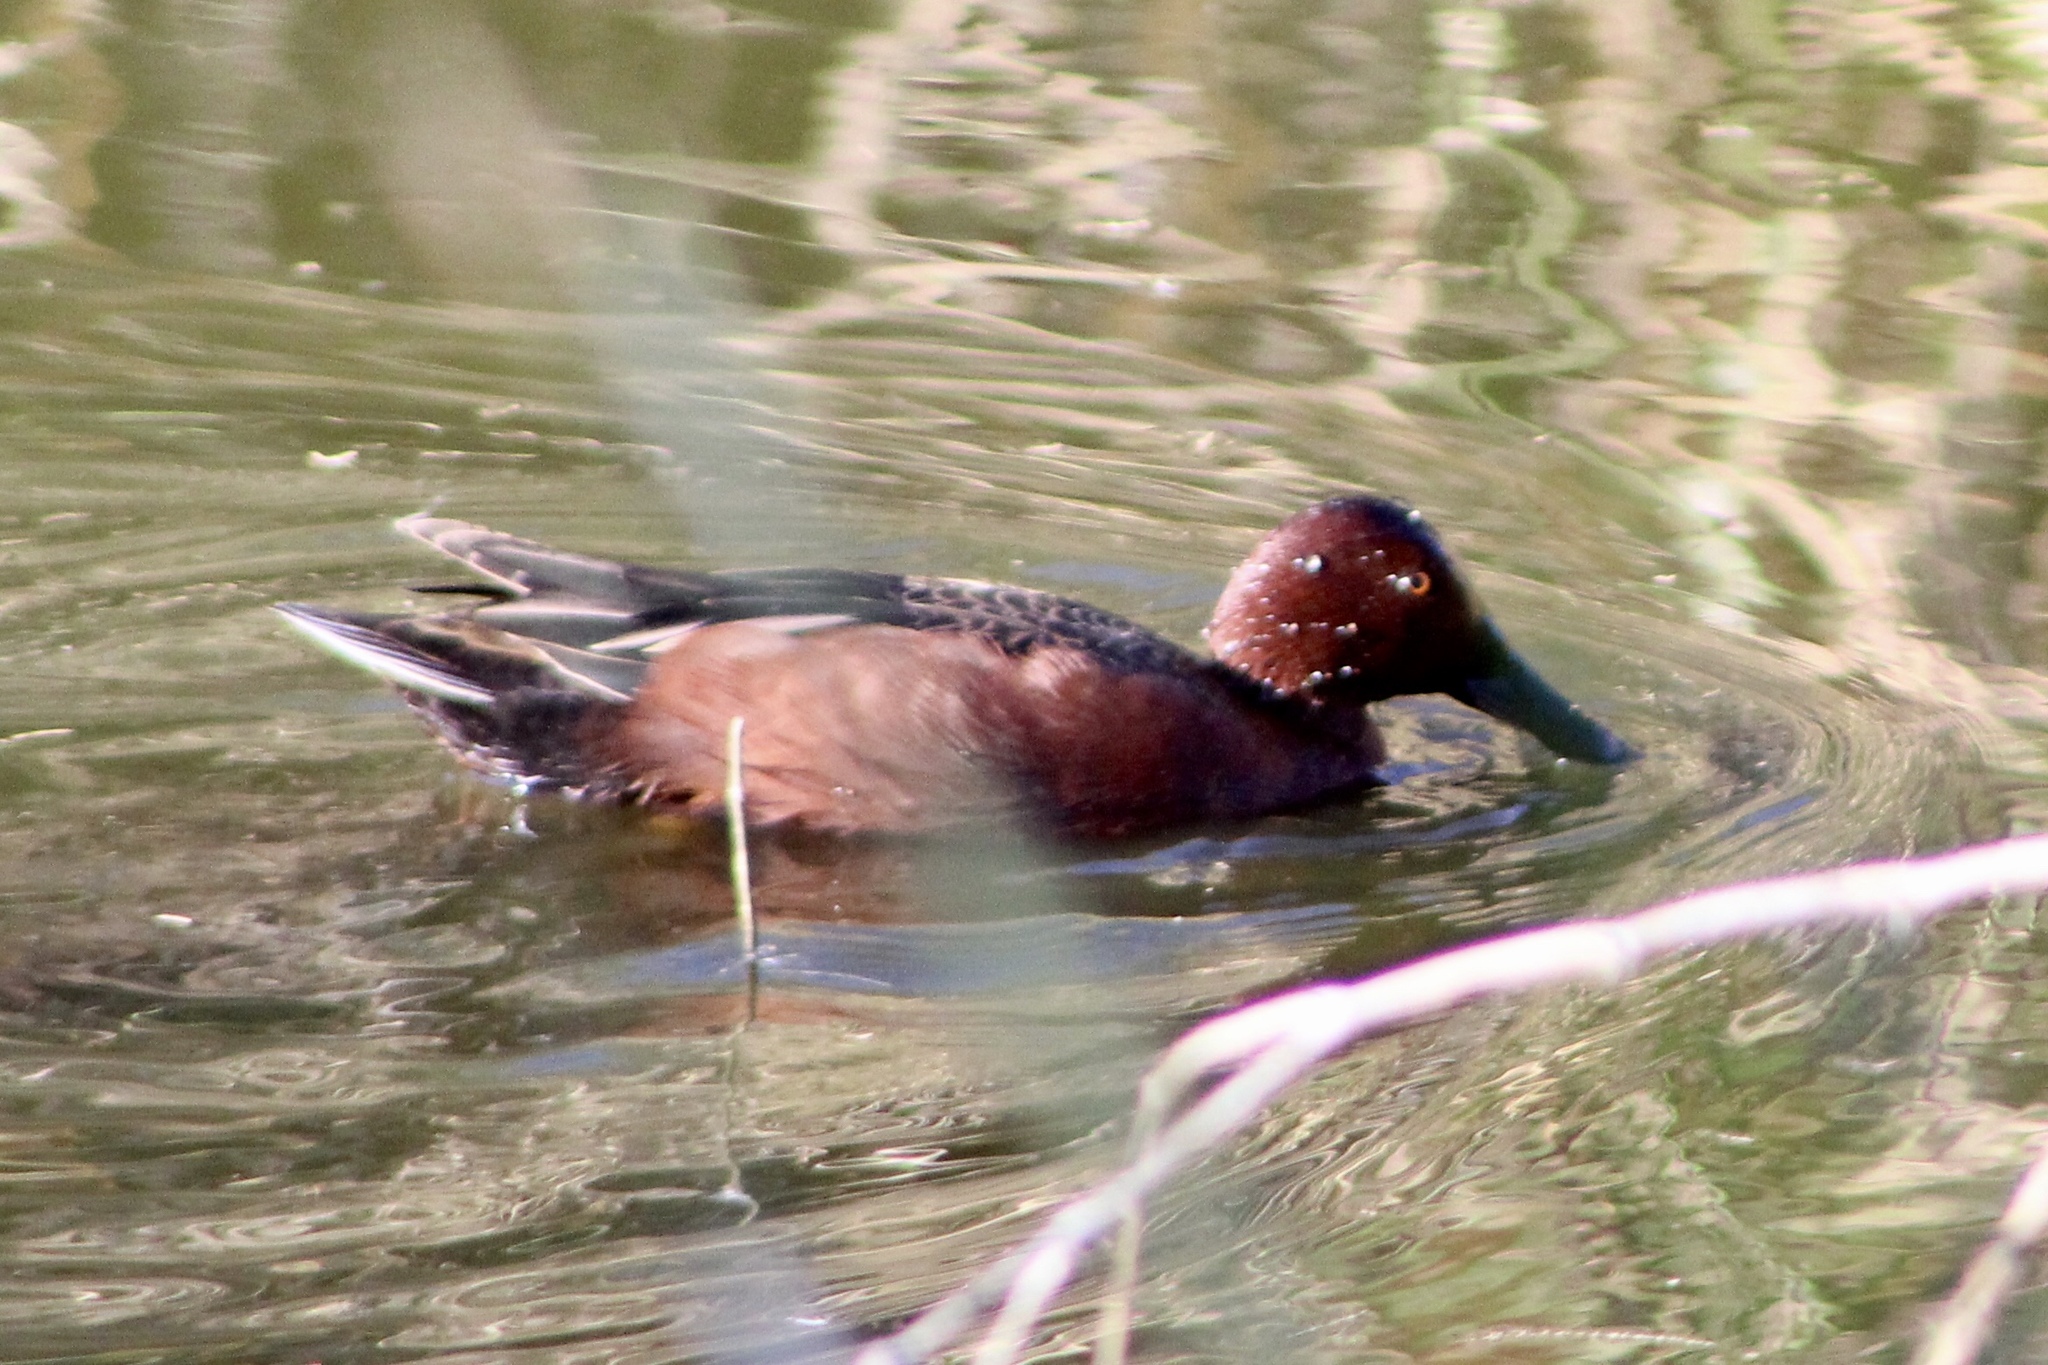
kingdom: Animalia
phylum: Chordata
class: Aves
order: Anseriformes
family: Anatidae
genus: Spatula
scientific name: Spatula cyanoptera
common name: Cinnamon teal
